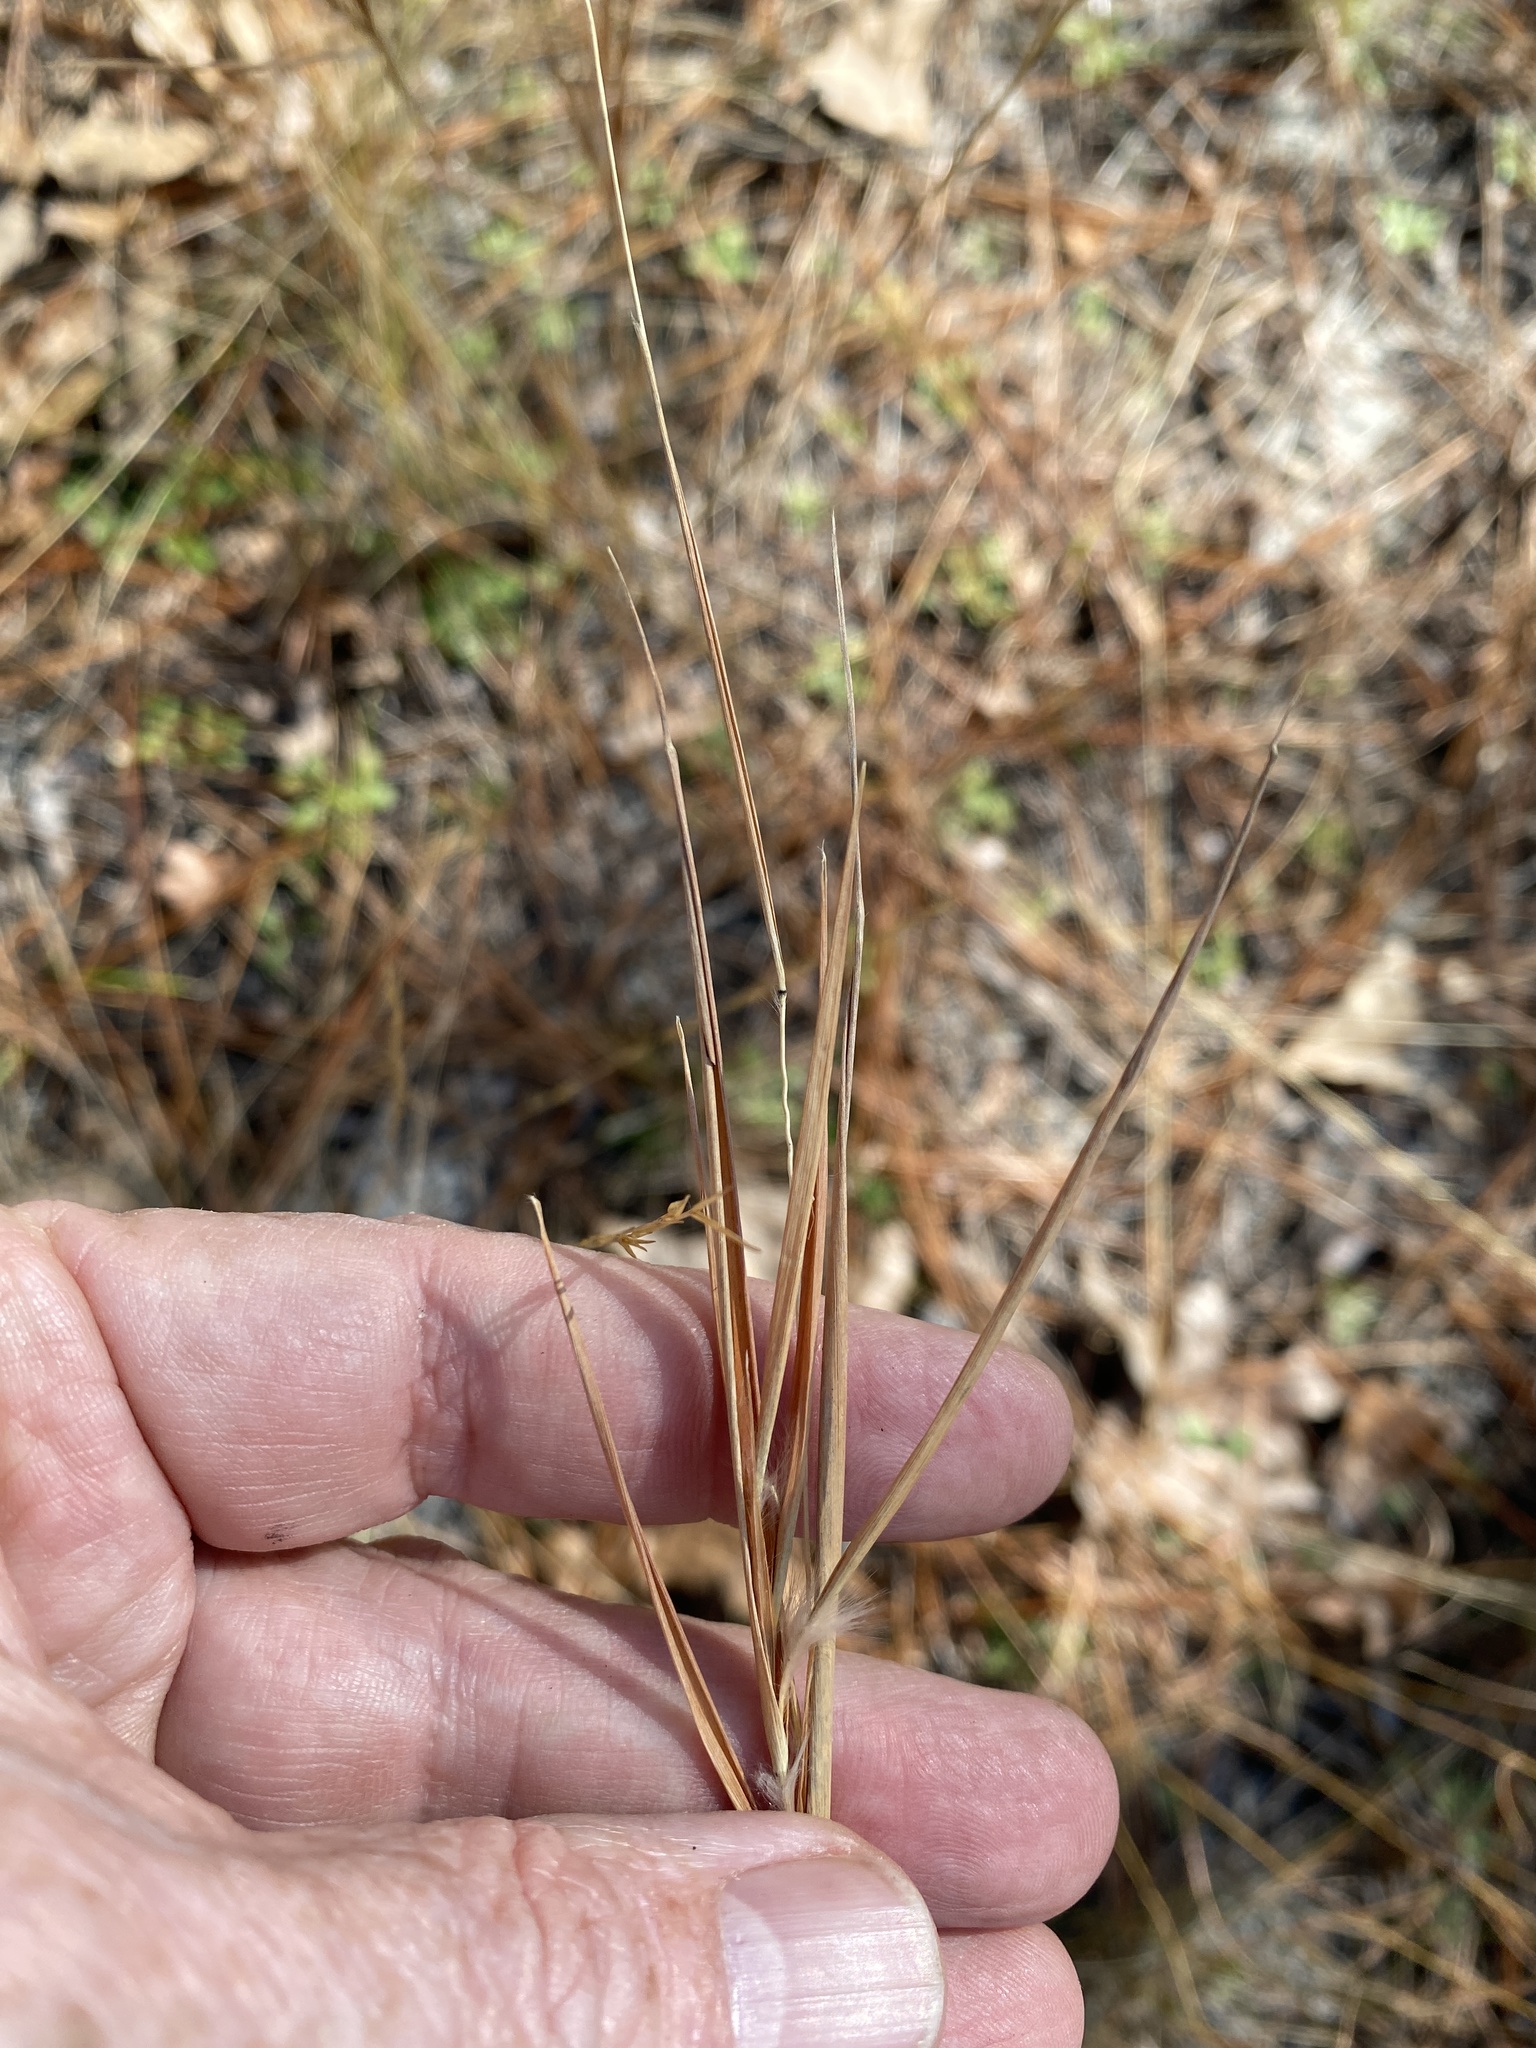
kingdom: Plantae
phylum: Tracheophyta
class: Liliopsida
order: Poales
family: Poaceae
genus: Andropogon
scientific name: Andropogon gyrans
